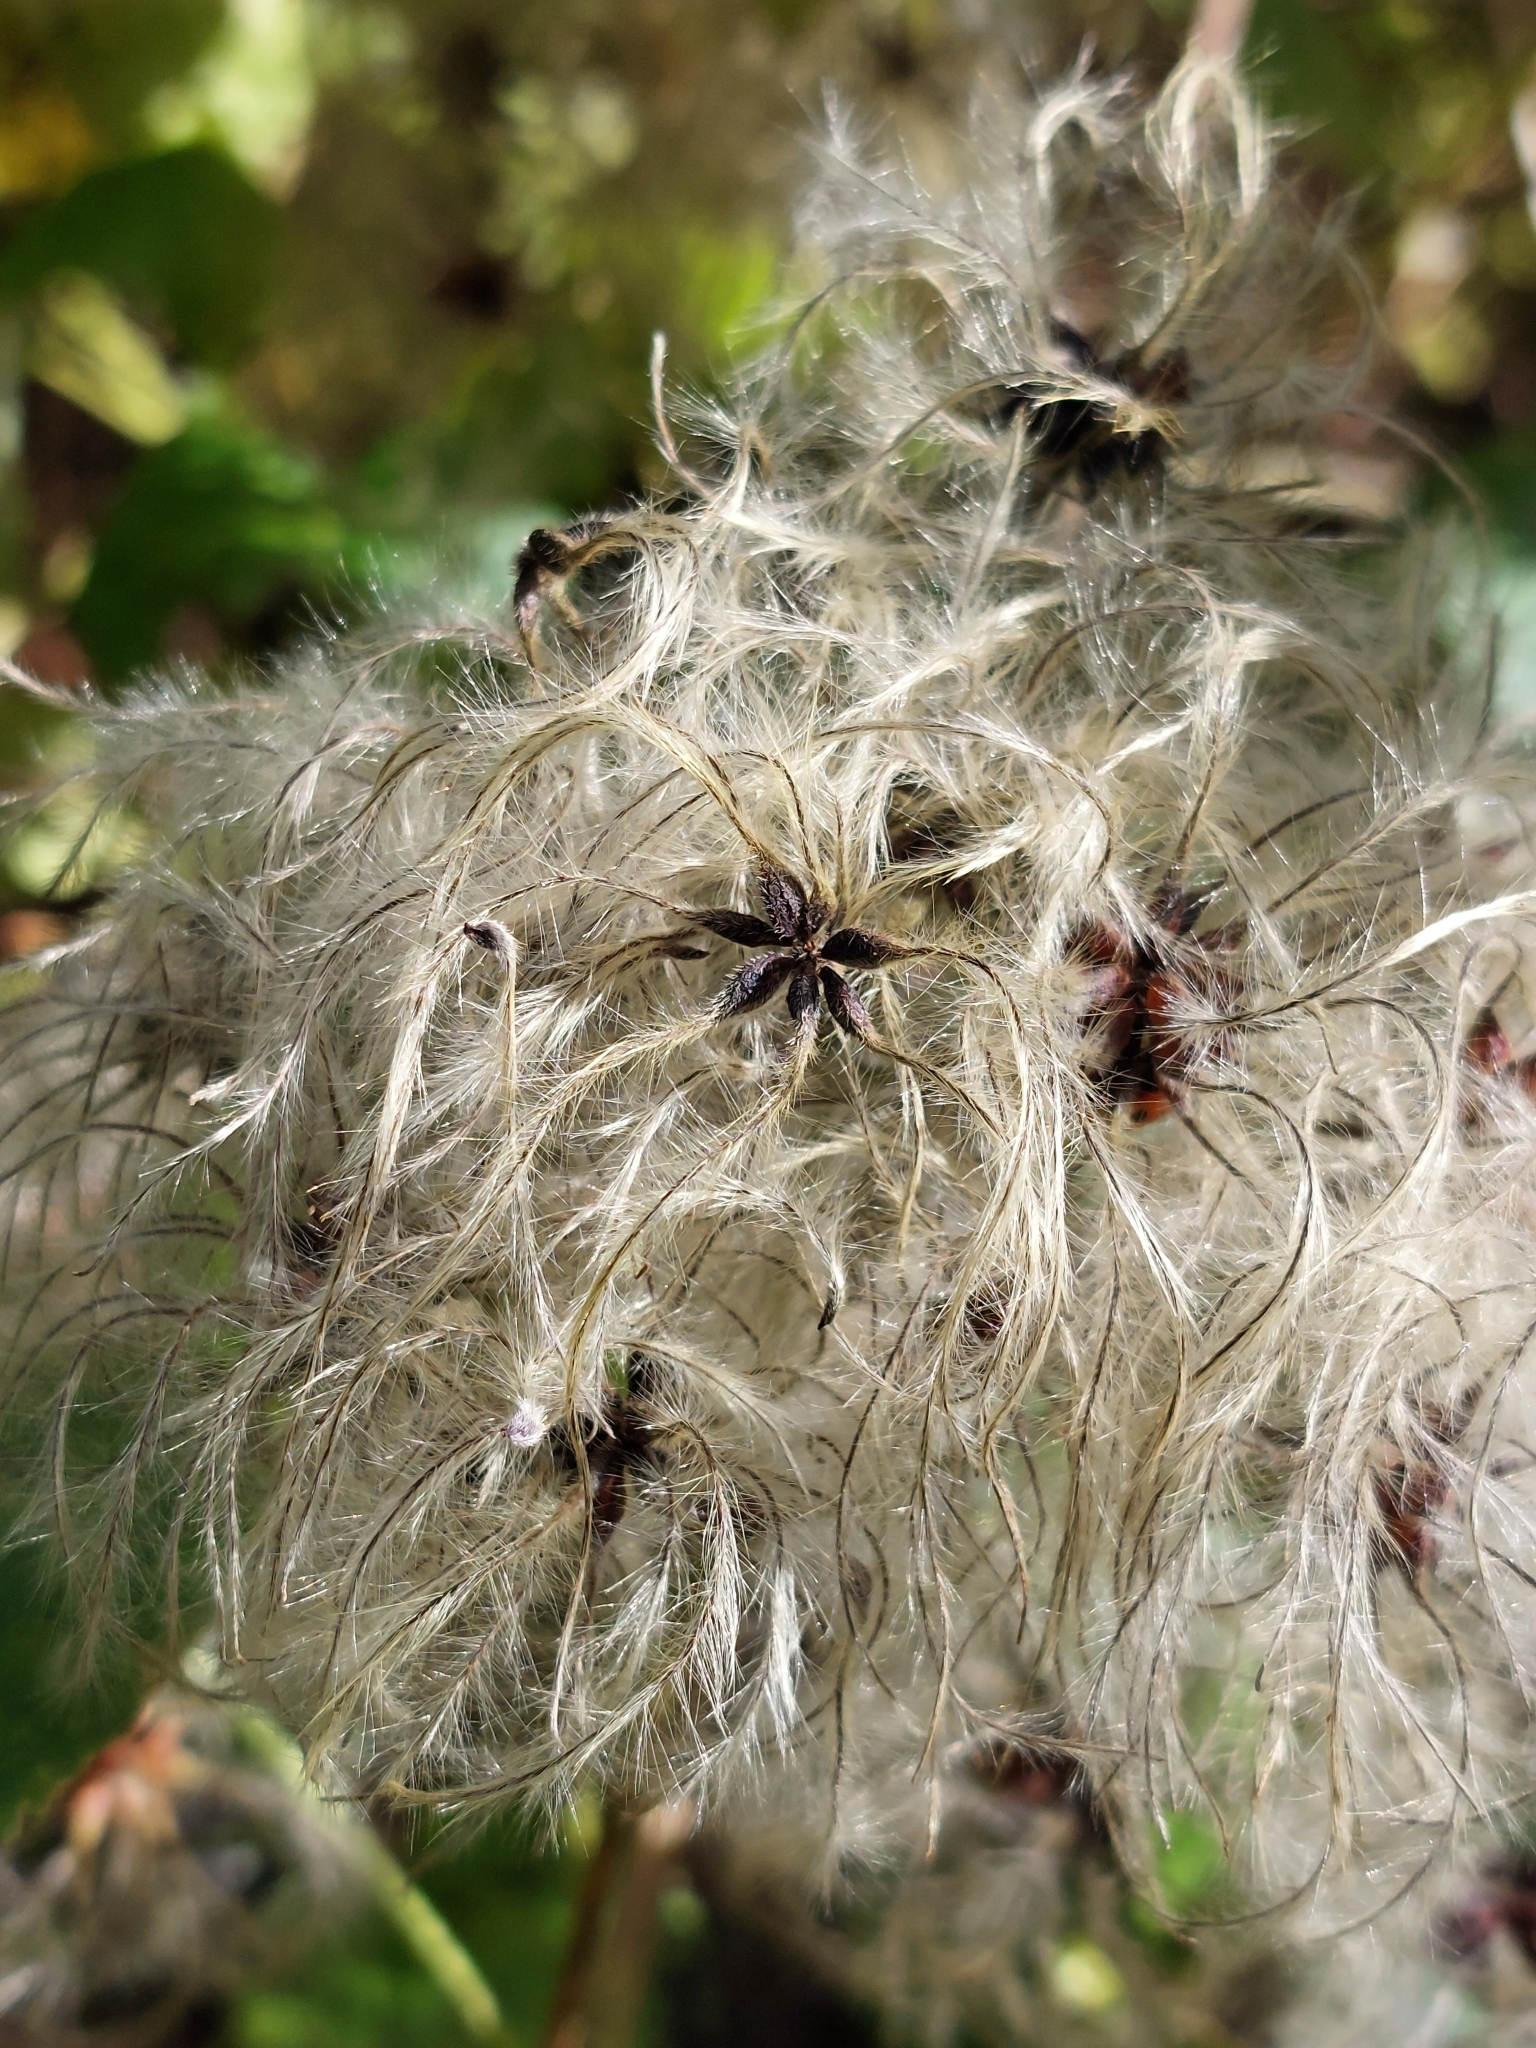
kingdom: Plantae
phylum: Tracheophyta
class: Magnoliopsida
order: Ranunculales
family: Ranunculaceae
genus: Clematis
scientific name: Clematis vitalba
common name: Evergreen clematis
